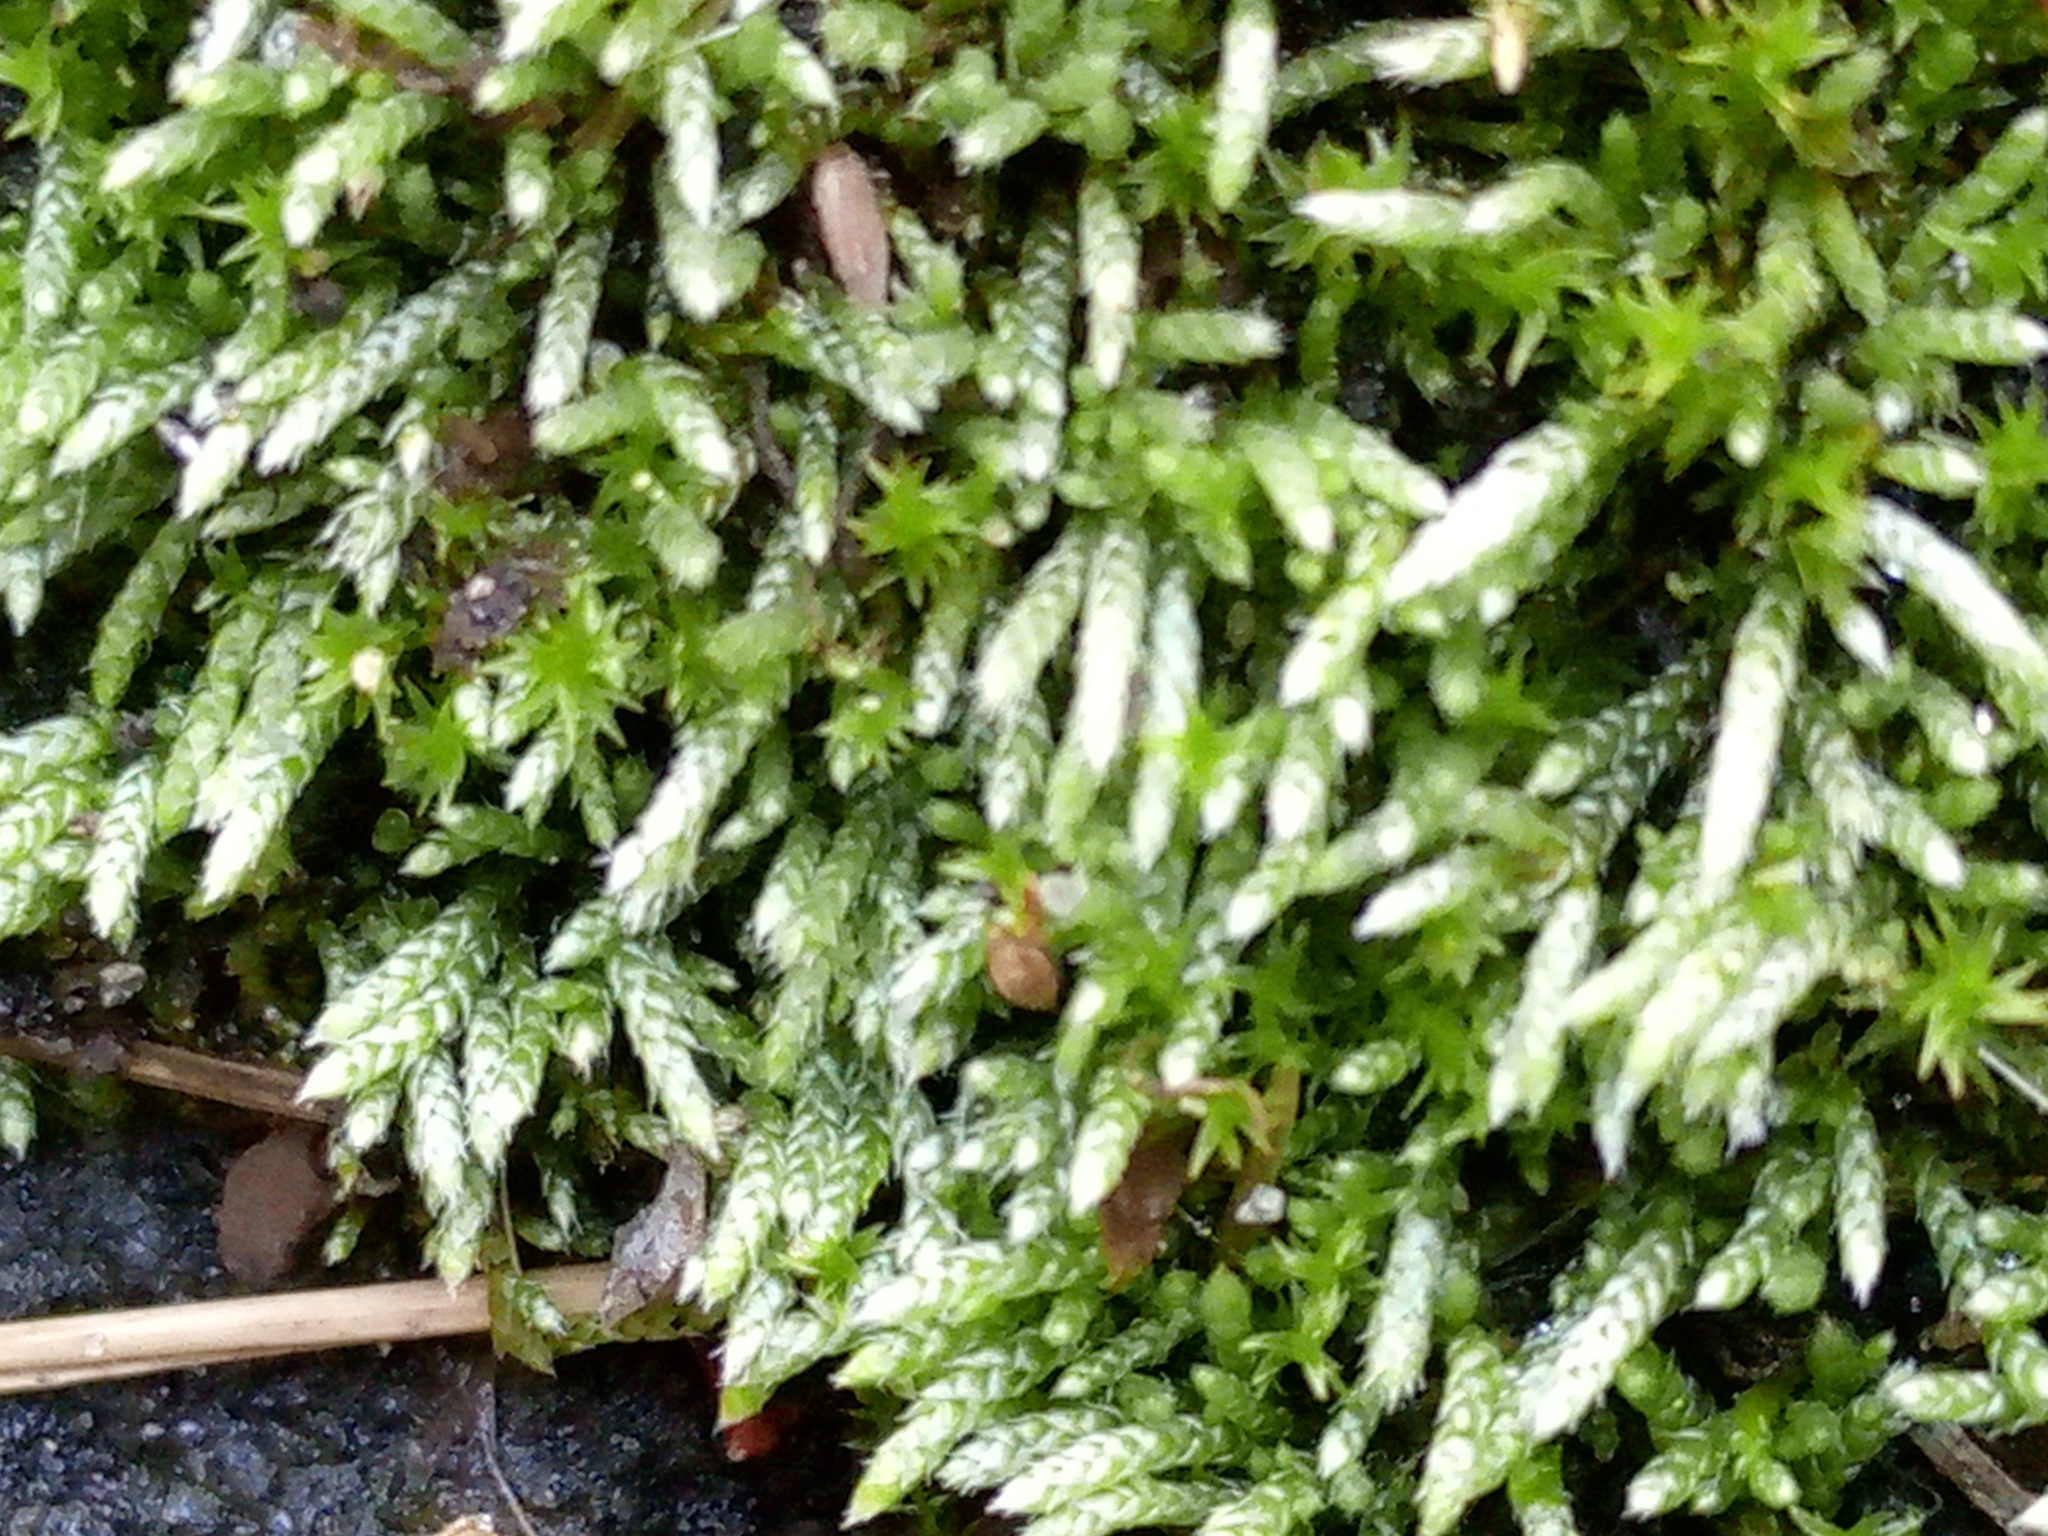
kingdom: Plantae
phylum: Bryophyta
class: Bryopsida
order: Bryales
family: Bryaceae
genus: Bryum
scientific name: Bryum argenteum
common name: Silver-moss
